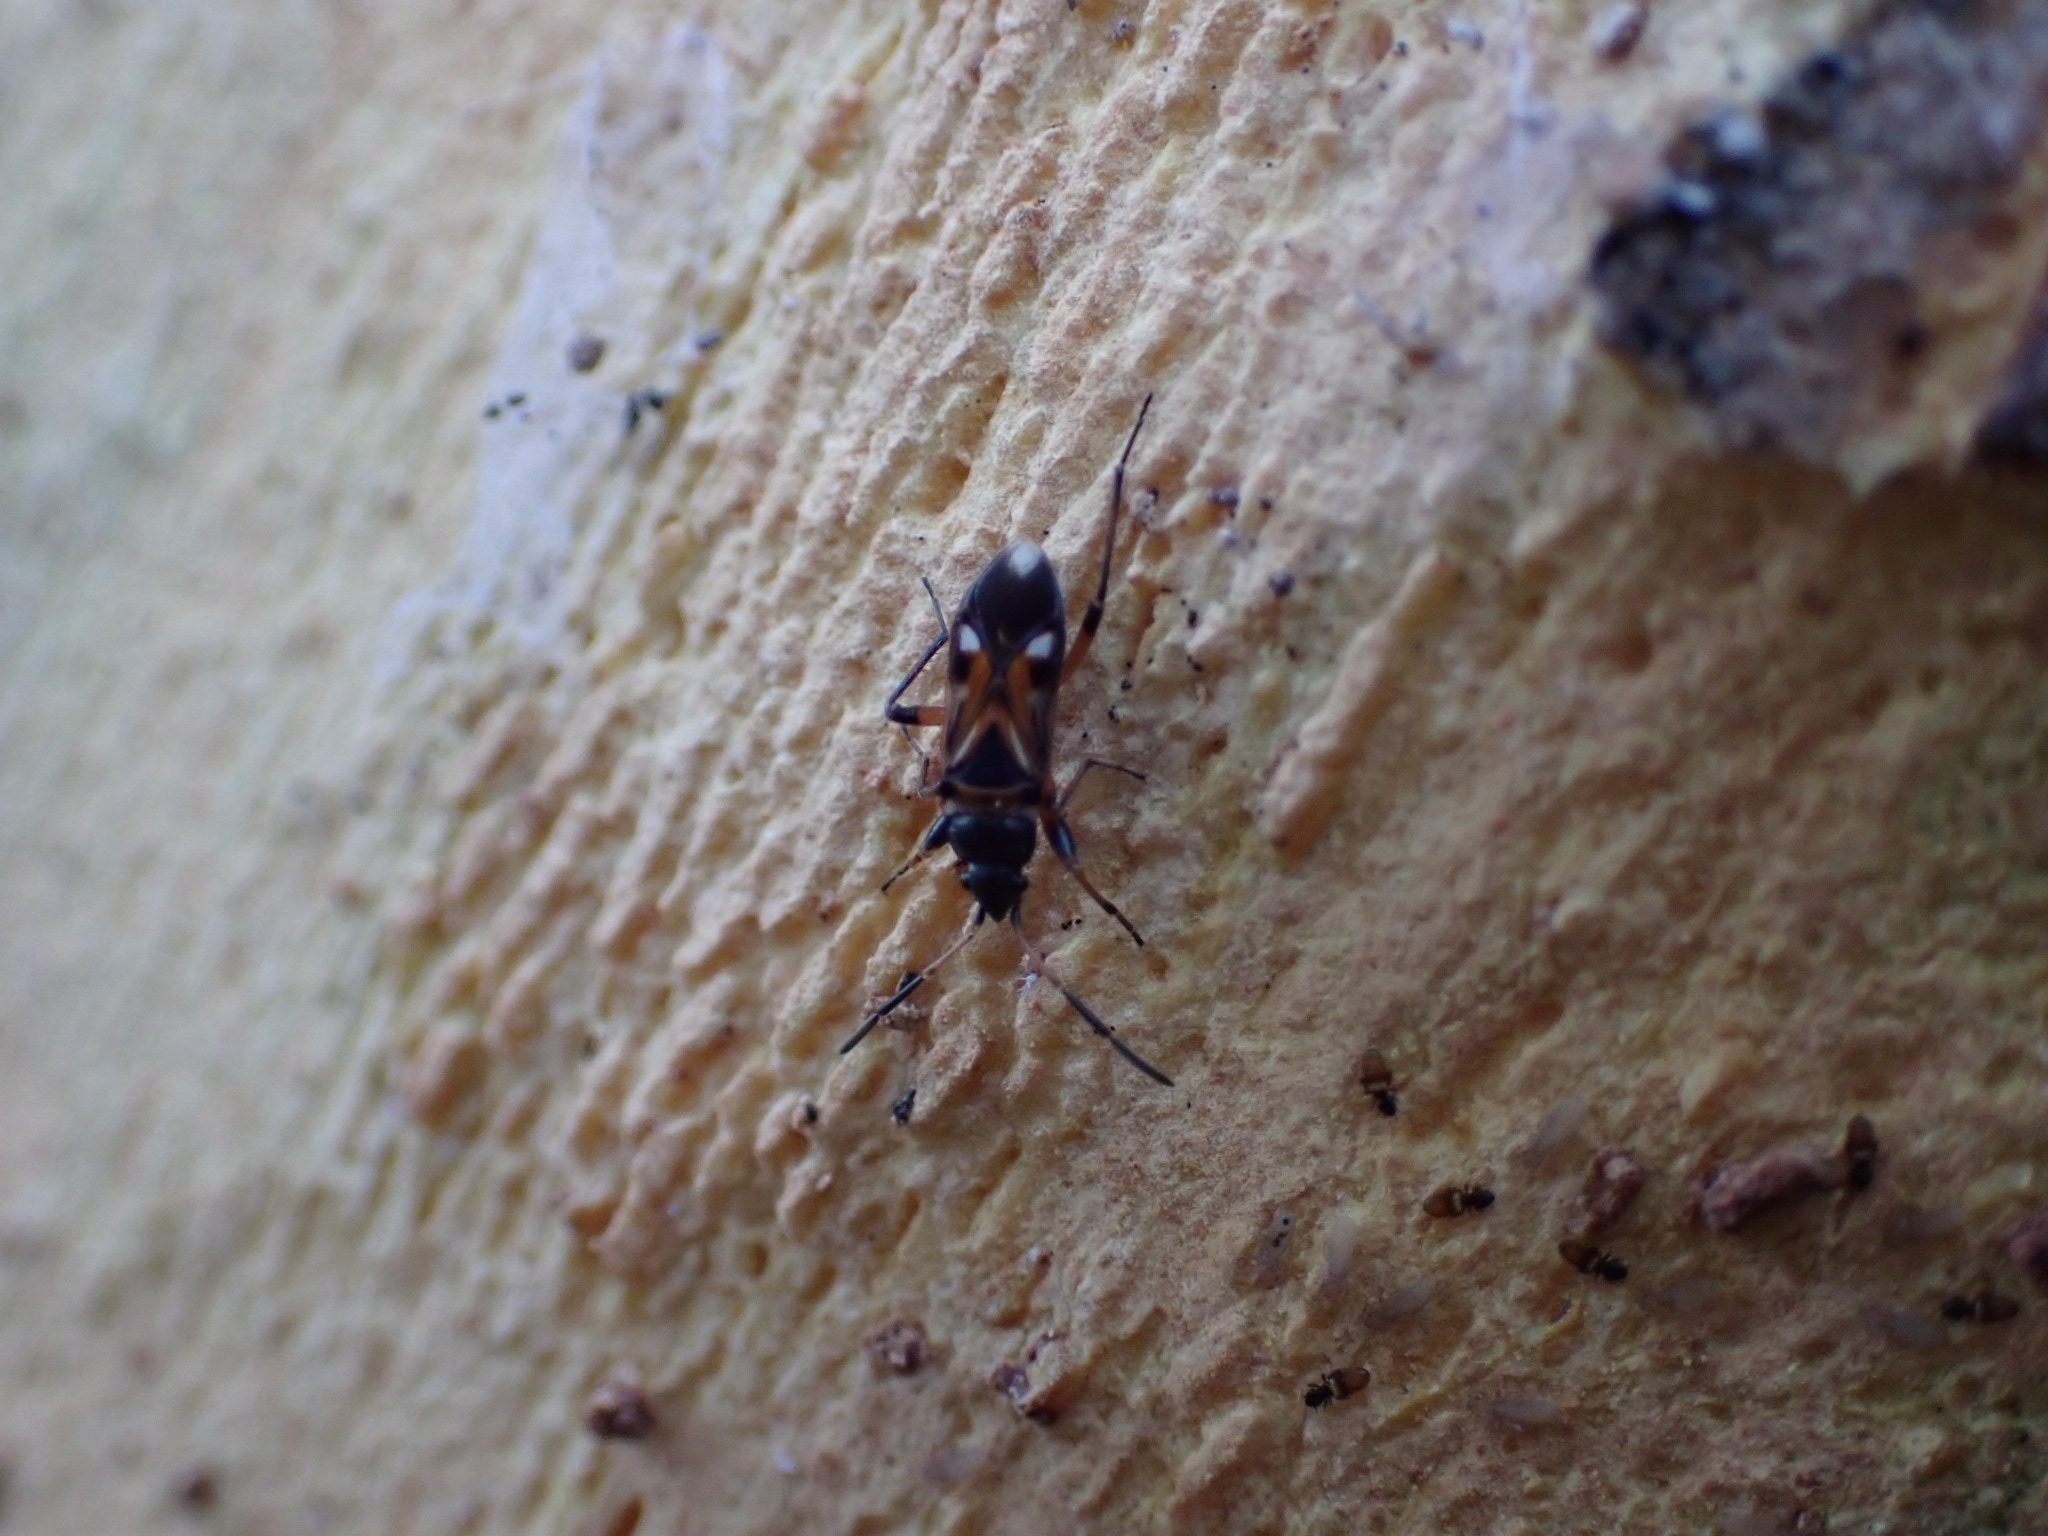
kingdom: Animalia
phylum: Arthropoda
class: Insecta
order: Hemiptera
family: Rhyparochromidae
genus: Raglius
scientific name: Raglius alboacuminatus
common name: Dirt-colored seed bug
